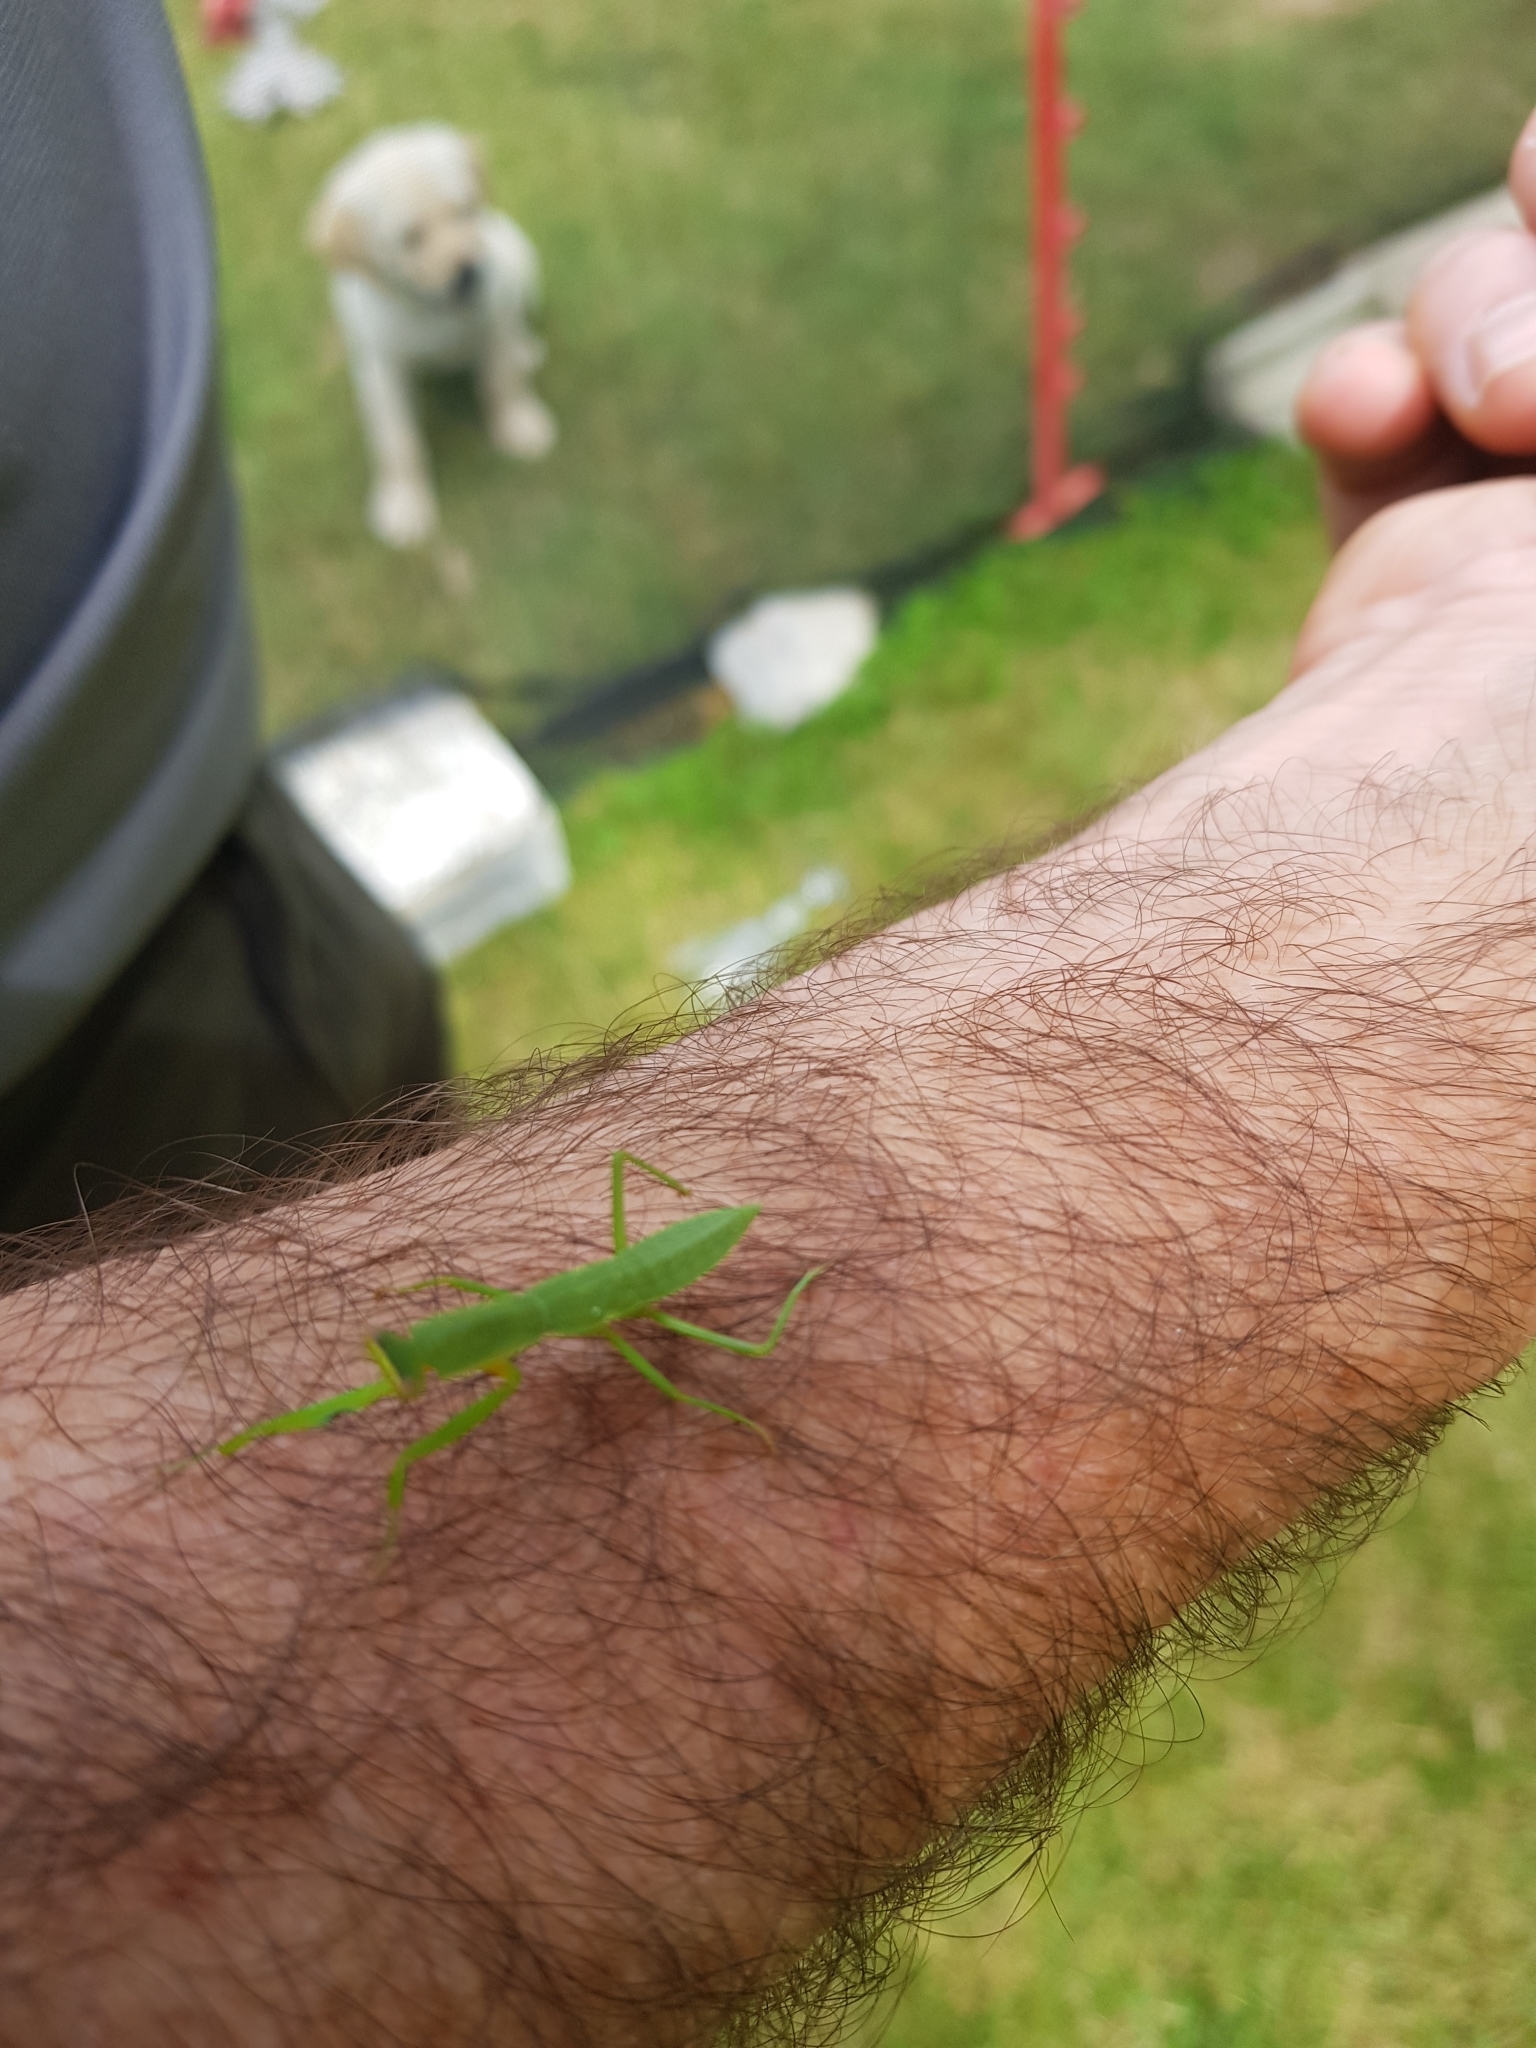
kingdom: Animalia
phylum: Arthropoda
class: Insecta
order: Mantodea
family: Mantidae
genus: Orthodera
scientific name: Orthodera novaezealandiae
